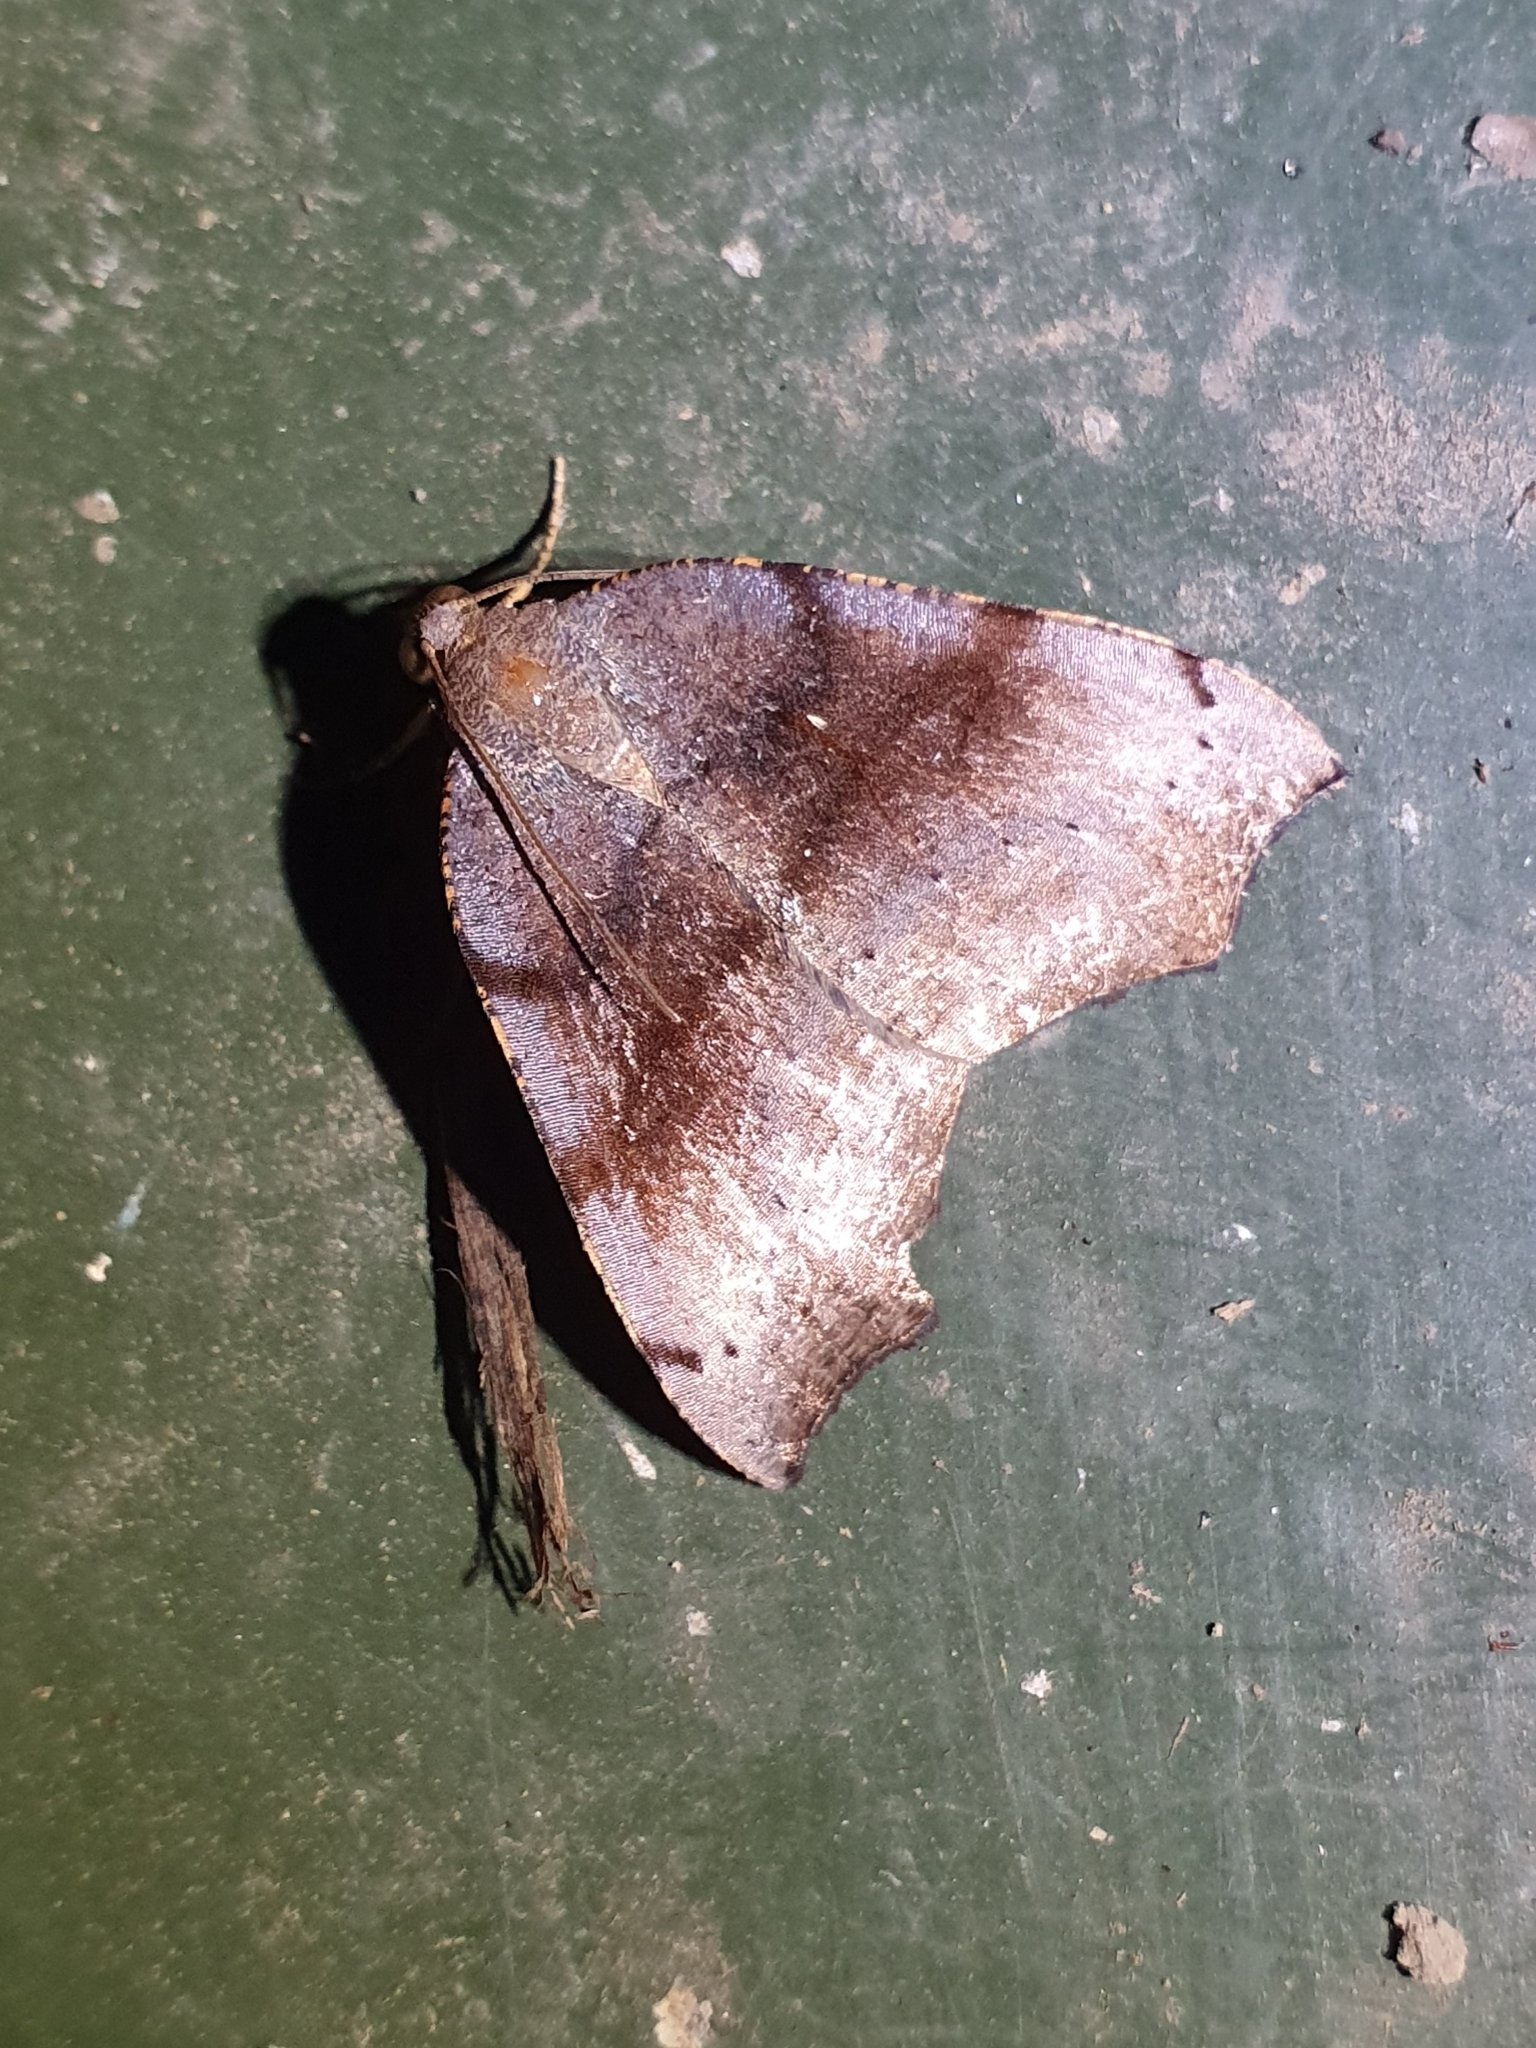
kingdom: Animalia
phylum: Arthropoda
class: Insecta
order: Lepidoptera
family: Geometridae
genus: Sestra
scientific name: Sestra flexata
